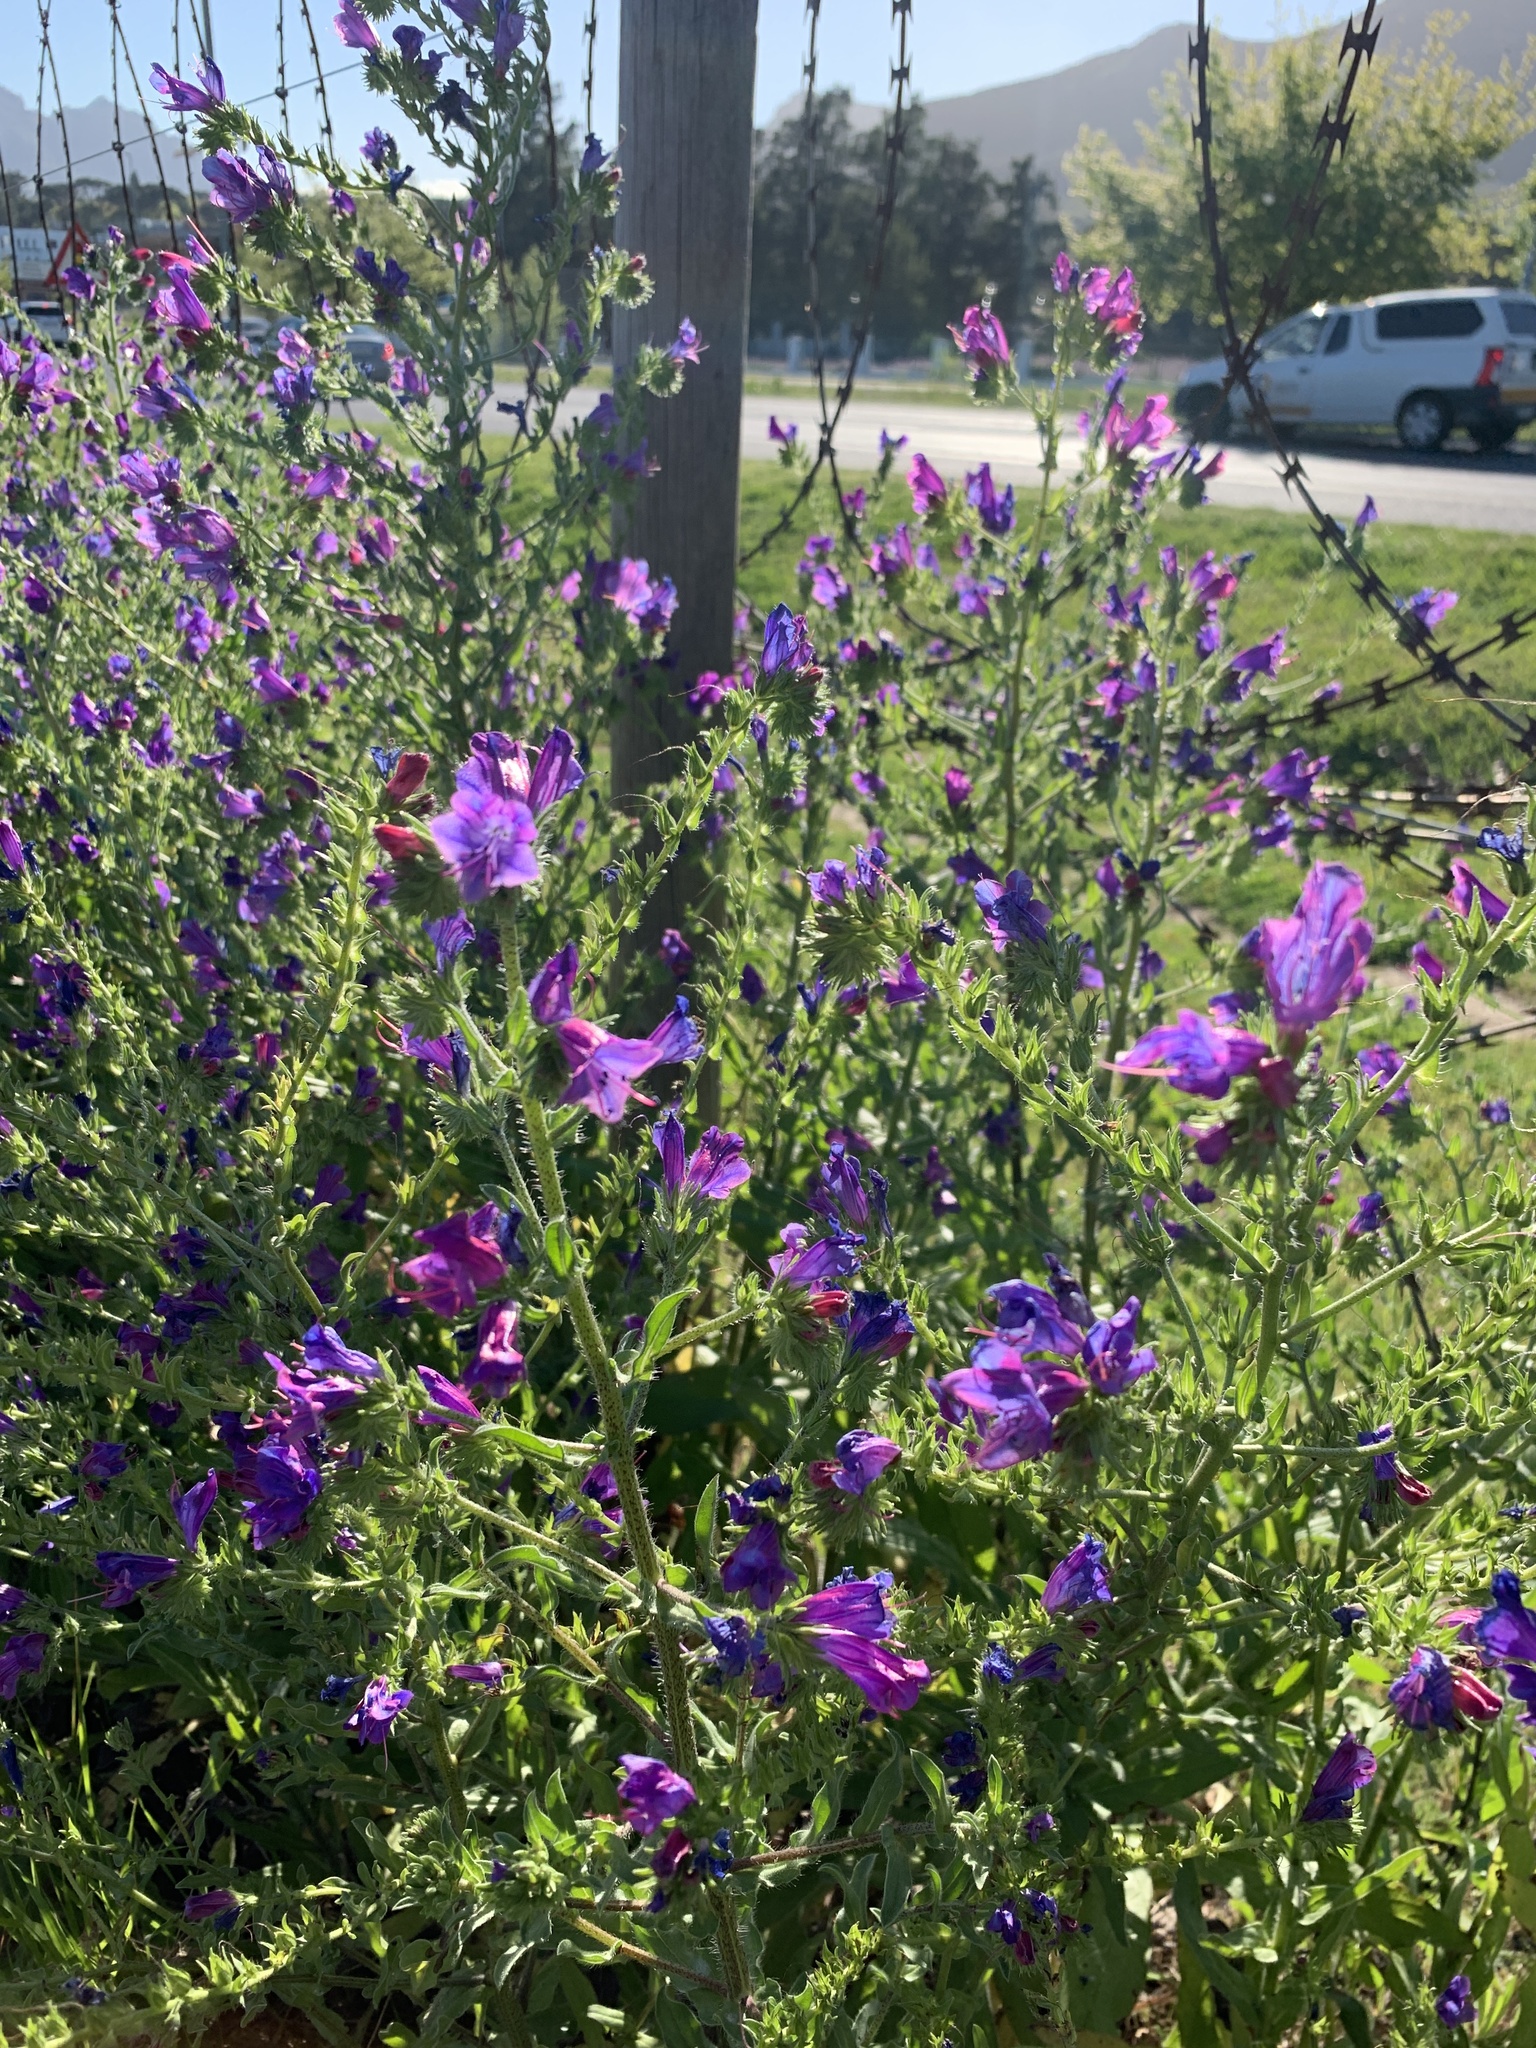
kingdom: Plantae
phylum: Tracheophyta
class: Magnoliopsida
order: Boraginales
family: Boraginaceae
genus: Echium
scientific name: Echium plantagineum
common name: Purple viper's-bugloss
